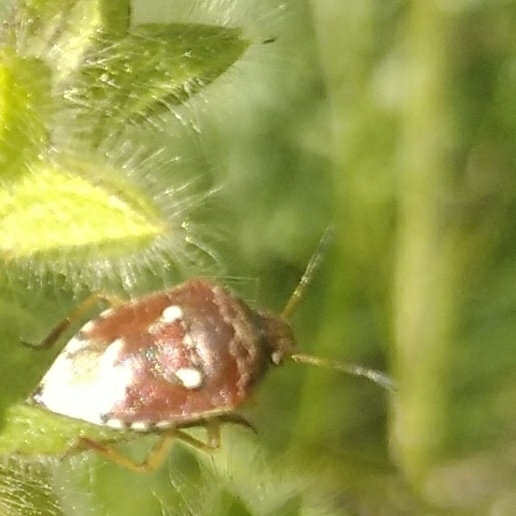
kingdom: Animalia
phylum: Arthropoda
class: Insecta
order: Hemiptera
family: Pentatomidae
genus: Stagonomus
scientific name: Stagonomus amoenus
